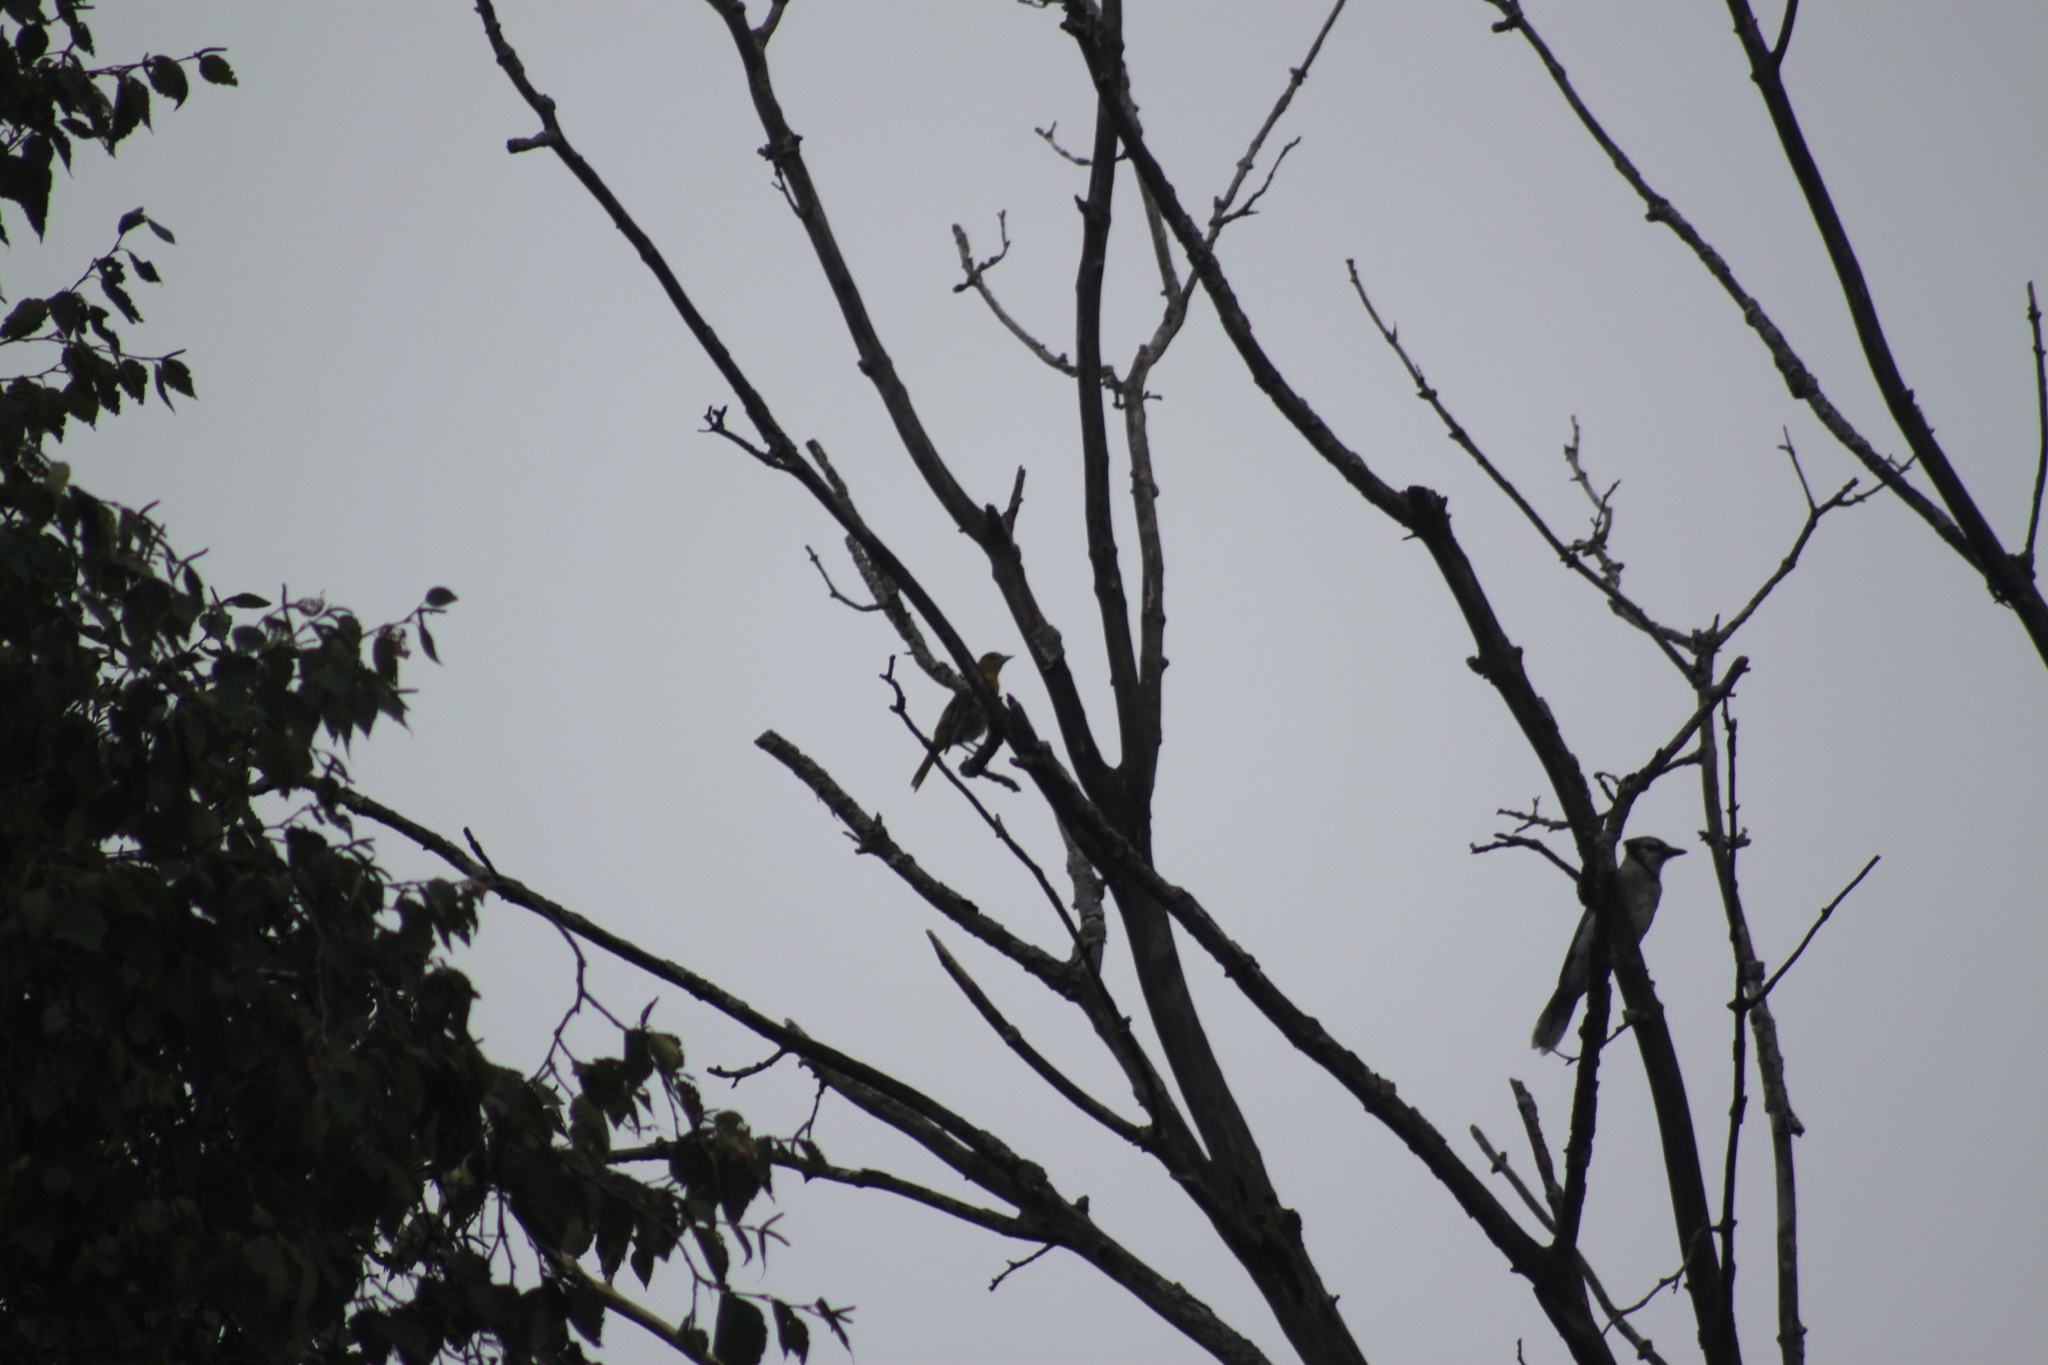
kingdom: Animalia
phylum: Chordata
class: Aves
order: Passeriformes
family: Icteridae
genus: Icterus
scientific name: Icterus galbula
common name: Baltimore oriole
